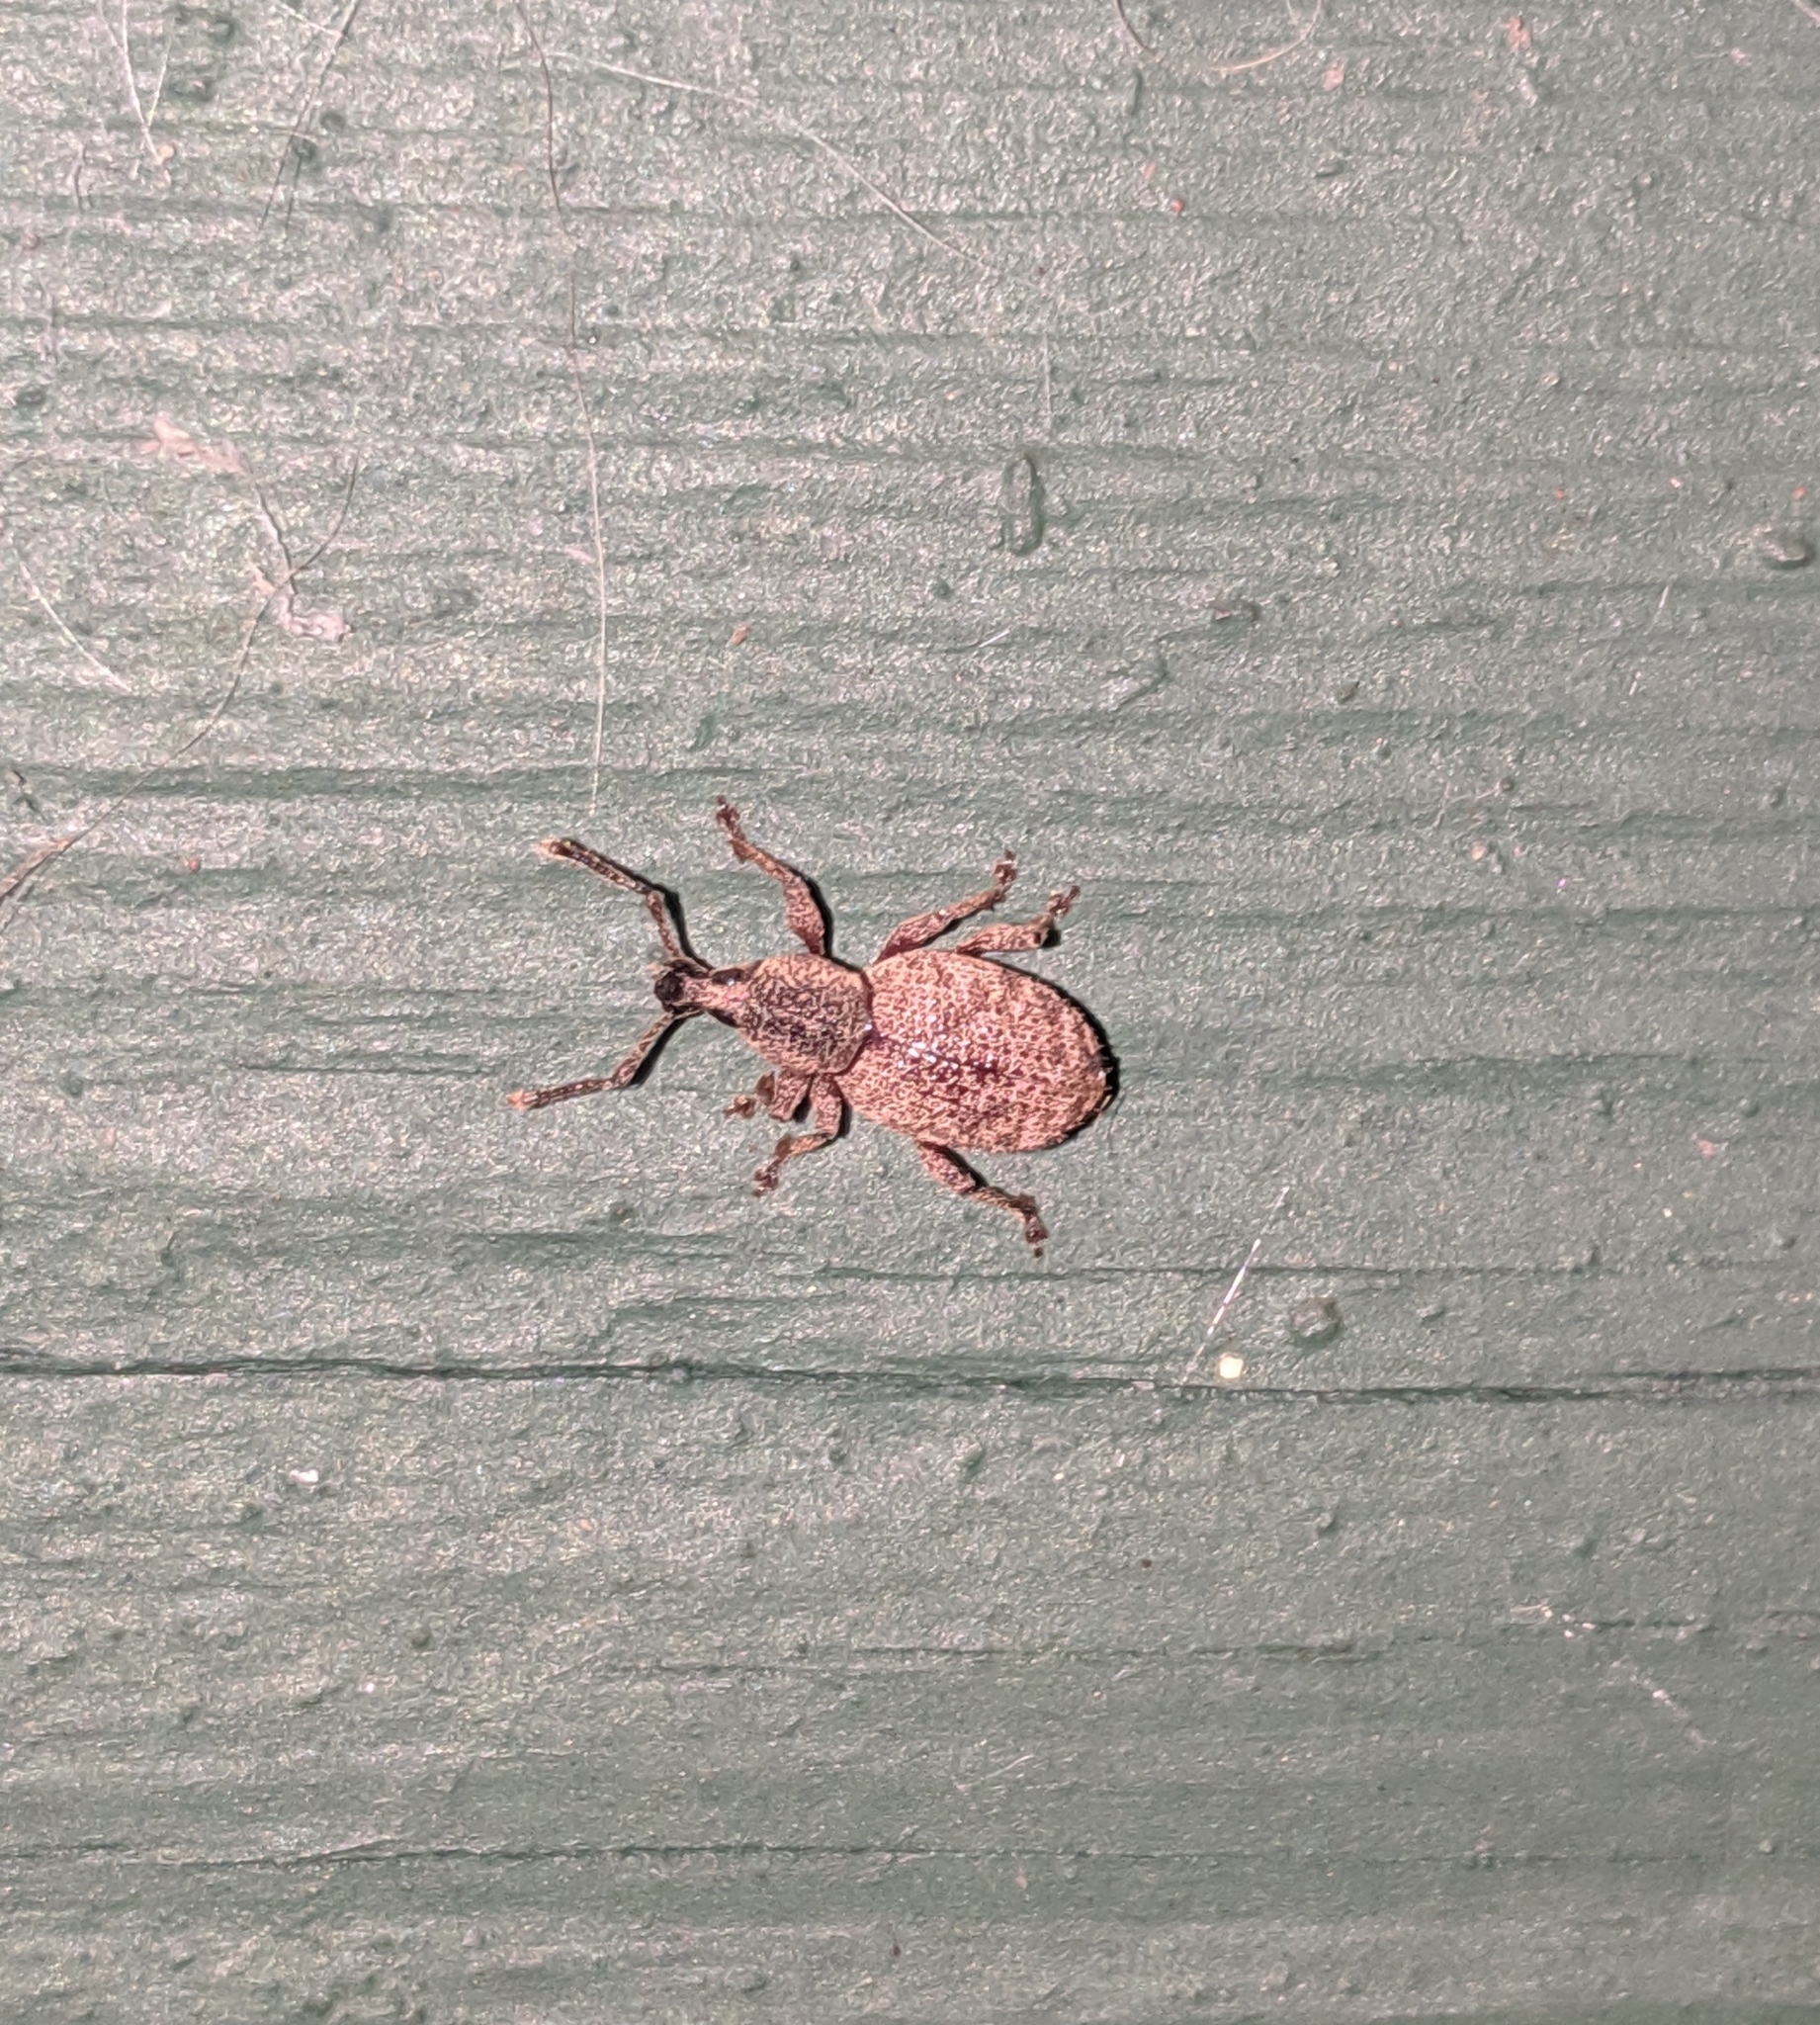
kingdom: Animalia
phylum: Arthropoda
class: Insecta
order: Coleoptera
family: Curculionidae
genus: Otiorhynchus
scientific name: Otiorhynchus singularis
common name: Clay-coloured weevil
